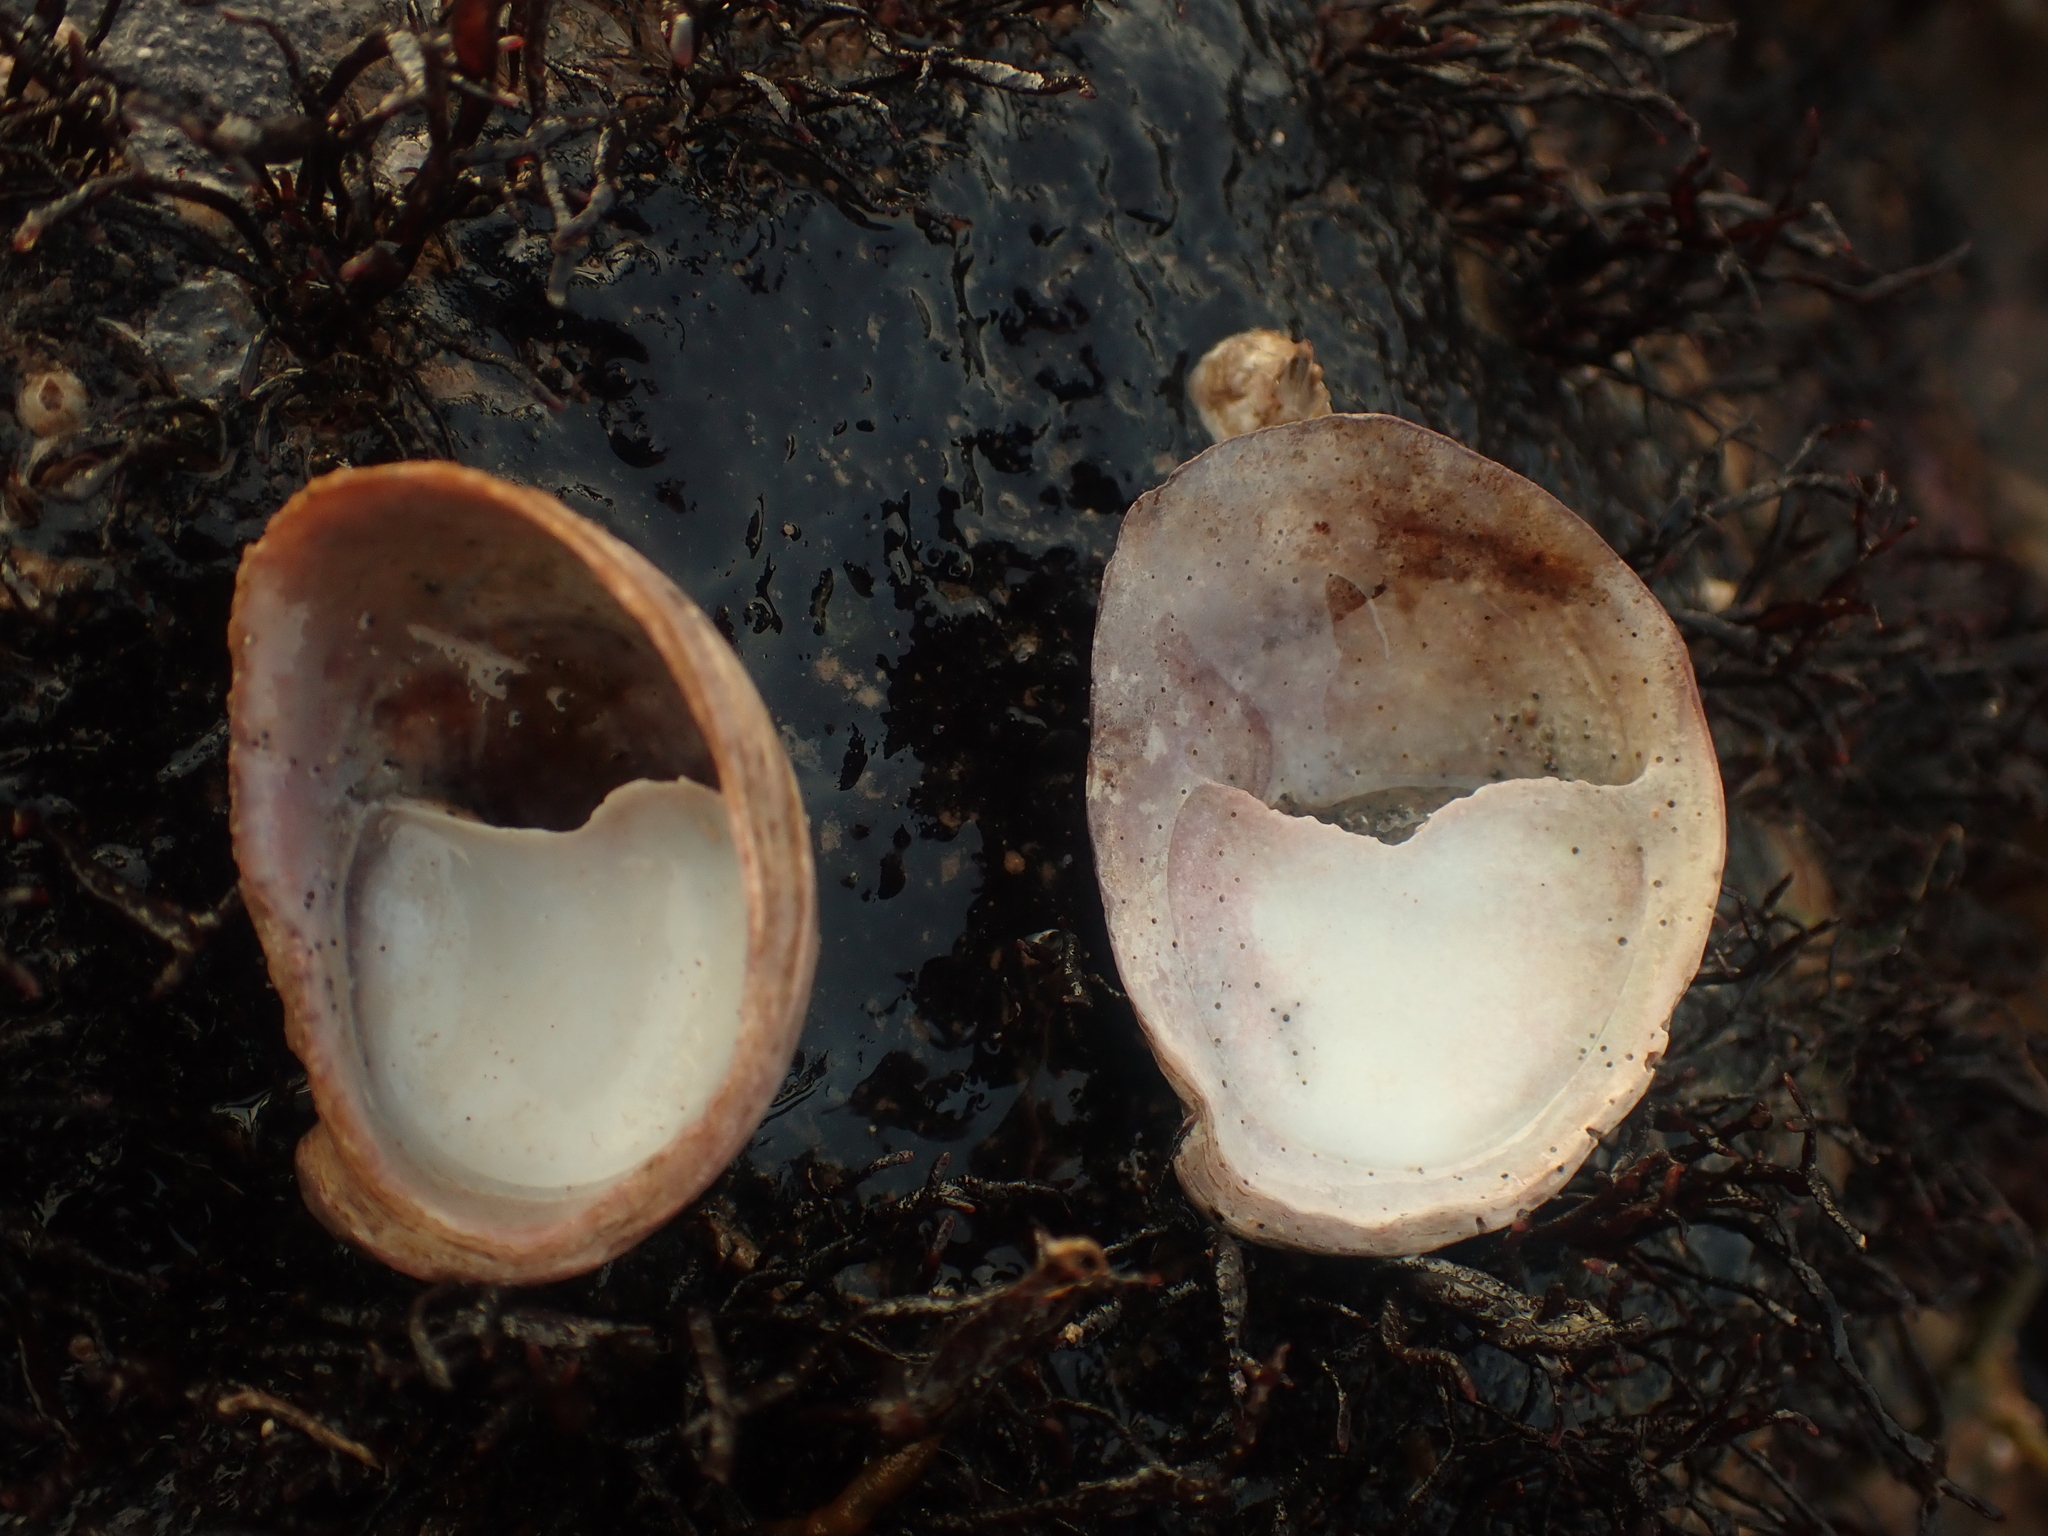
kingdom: Animalia
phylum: Mollusca
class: Gastropoda
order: Littorinimorpha
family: Calyptraeidae
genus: Crepidula
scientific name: Crepidula fornicata
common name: Slipper limpet
